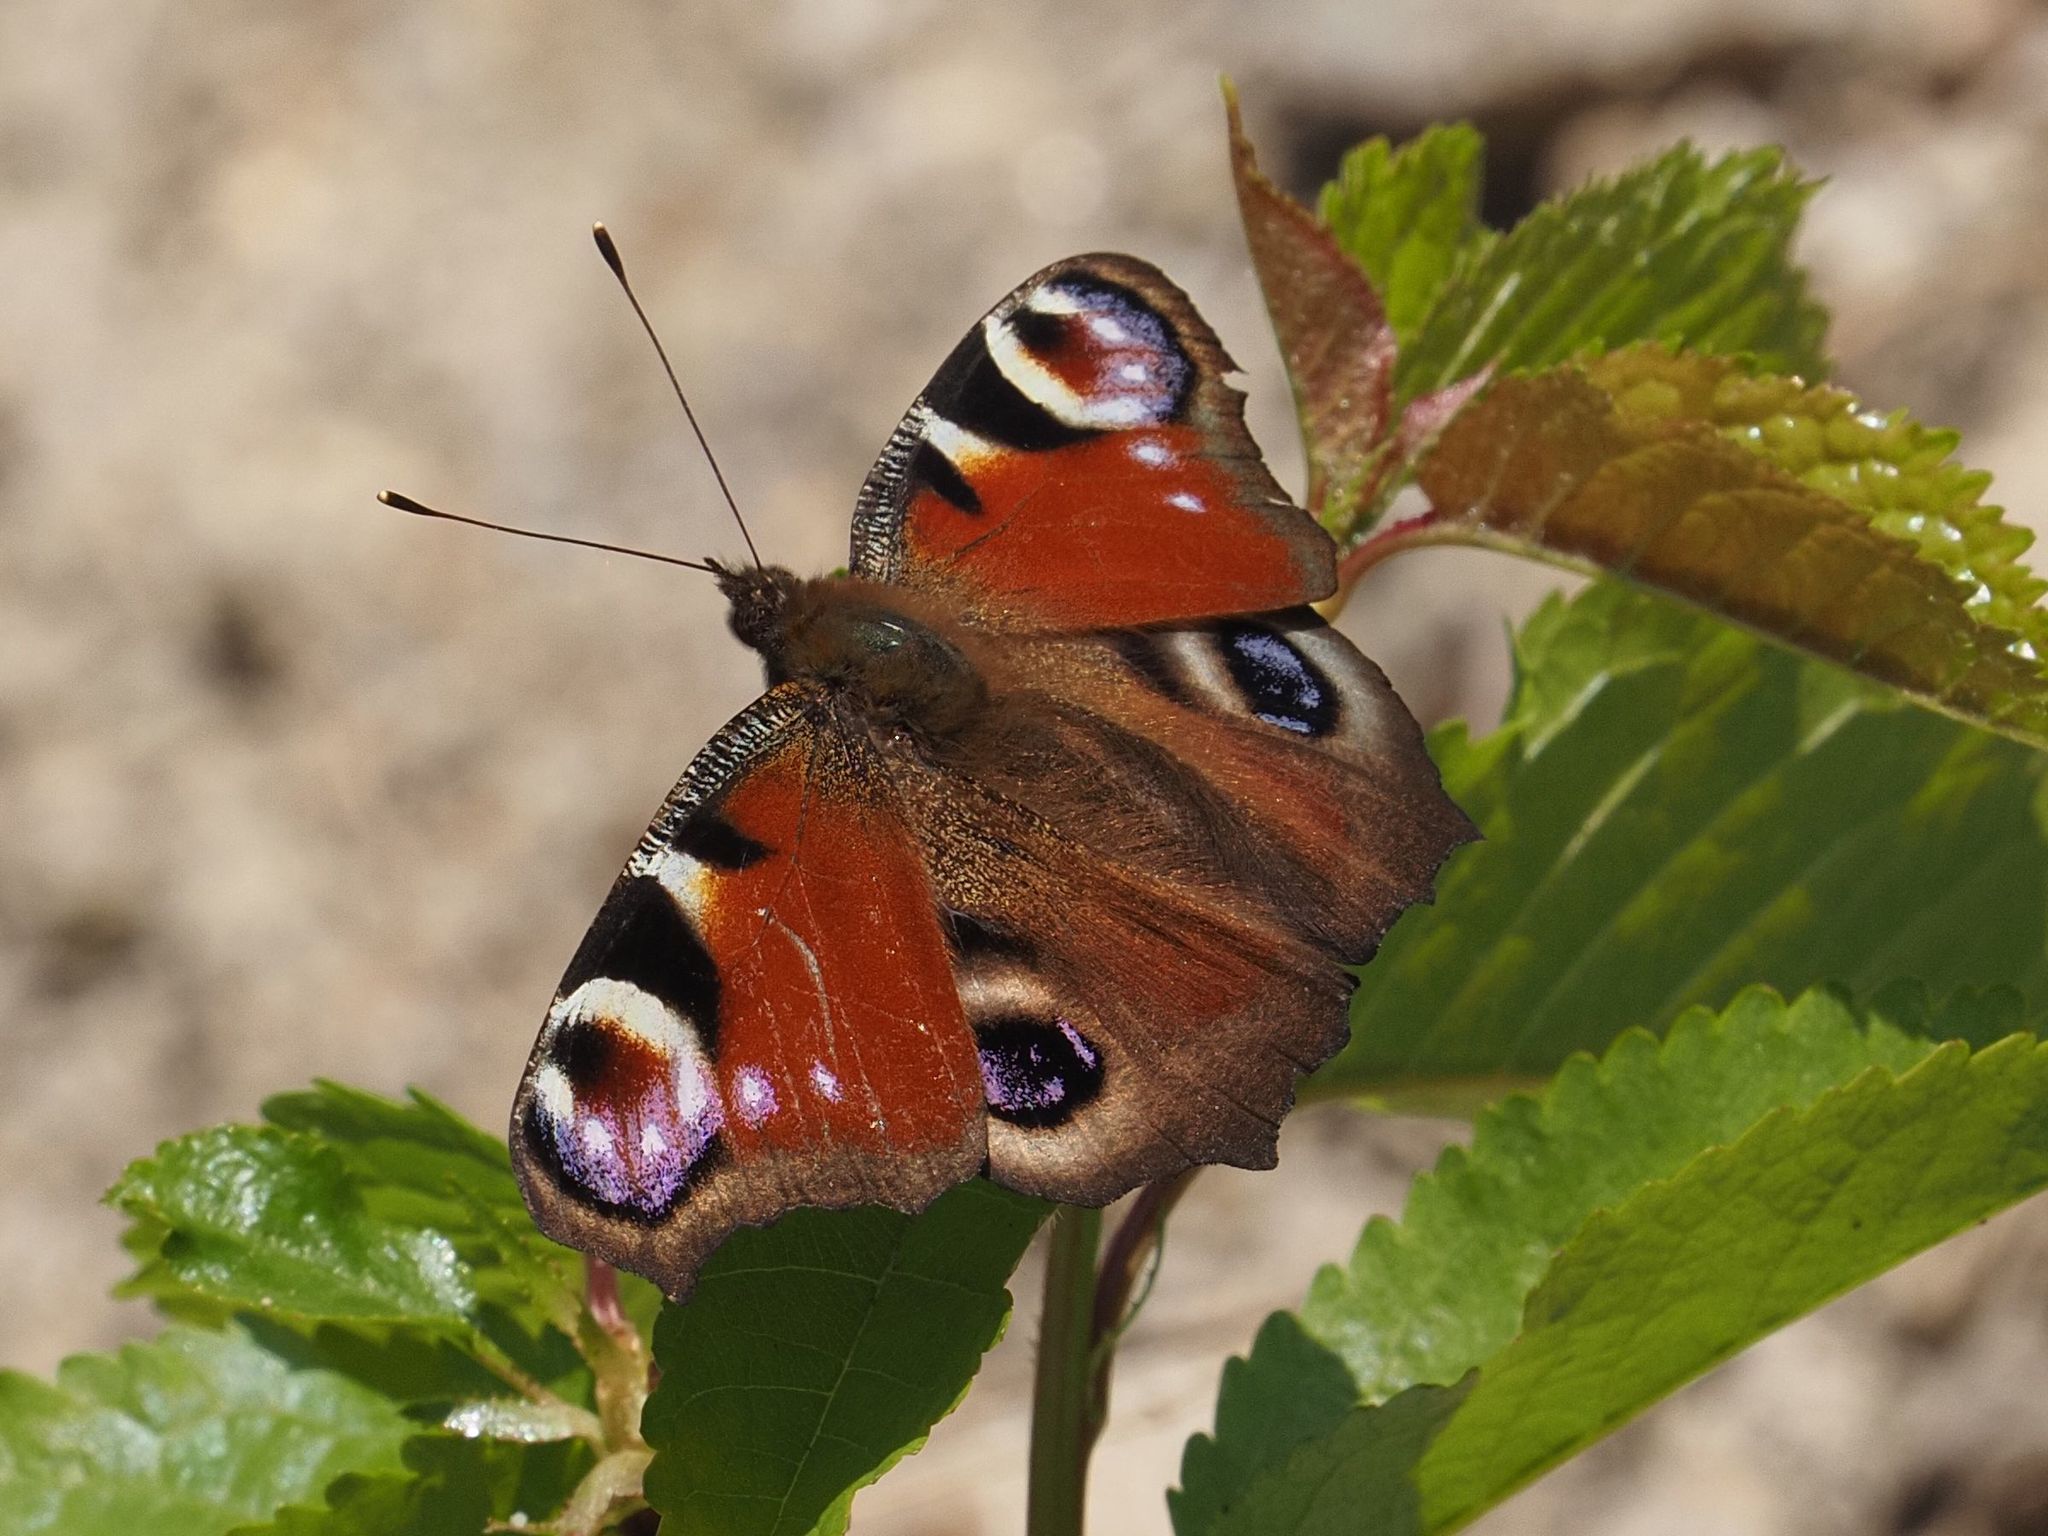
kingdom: Animalia
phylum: Arthropoda
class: Insecta
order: Lepidoptera
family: Nymphalidae
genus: Aglais
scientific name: Aglais io
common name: Peacock
